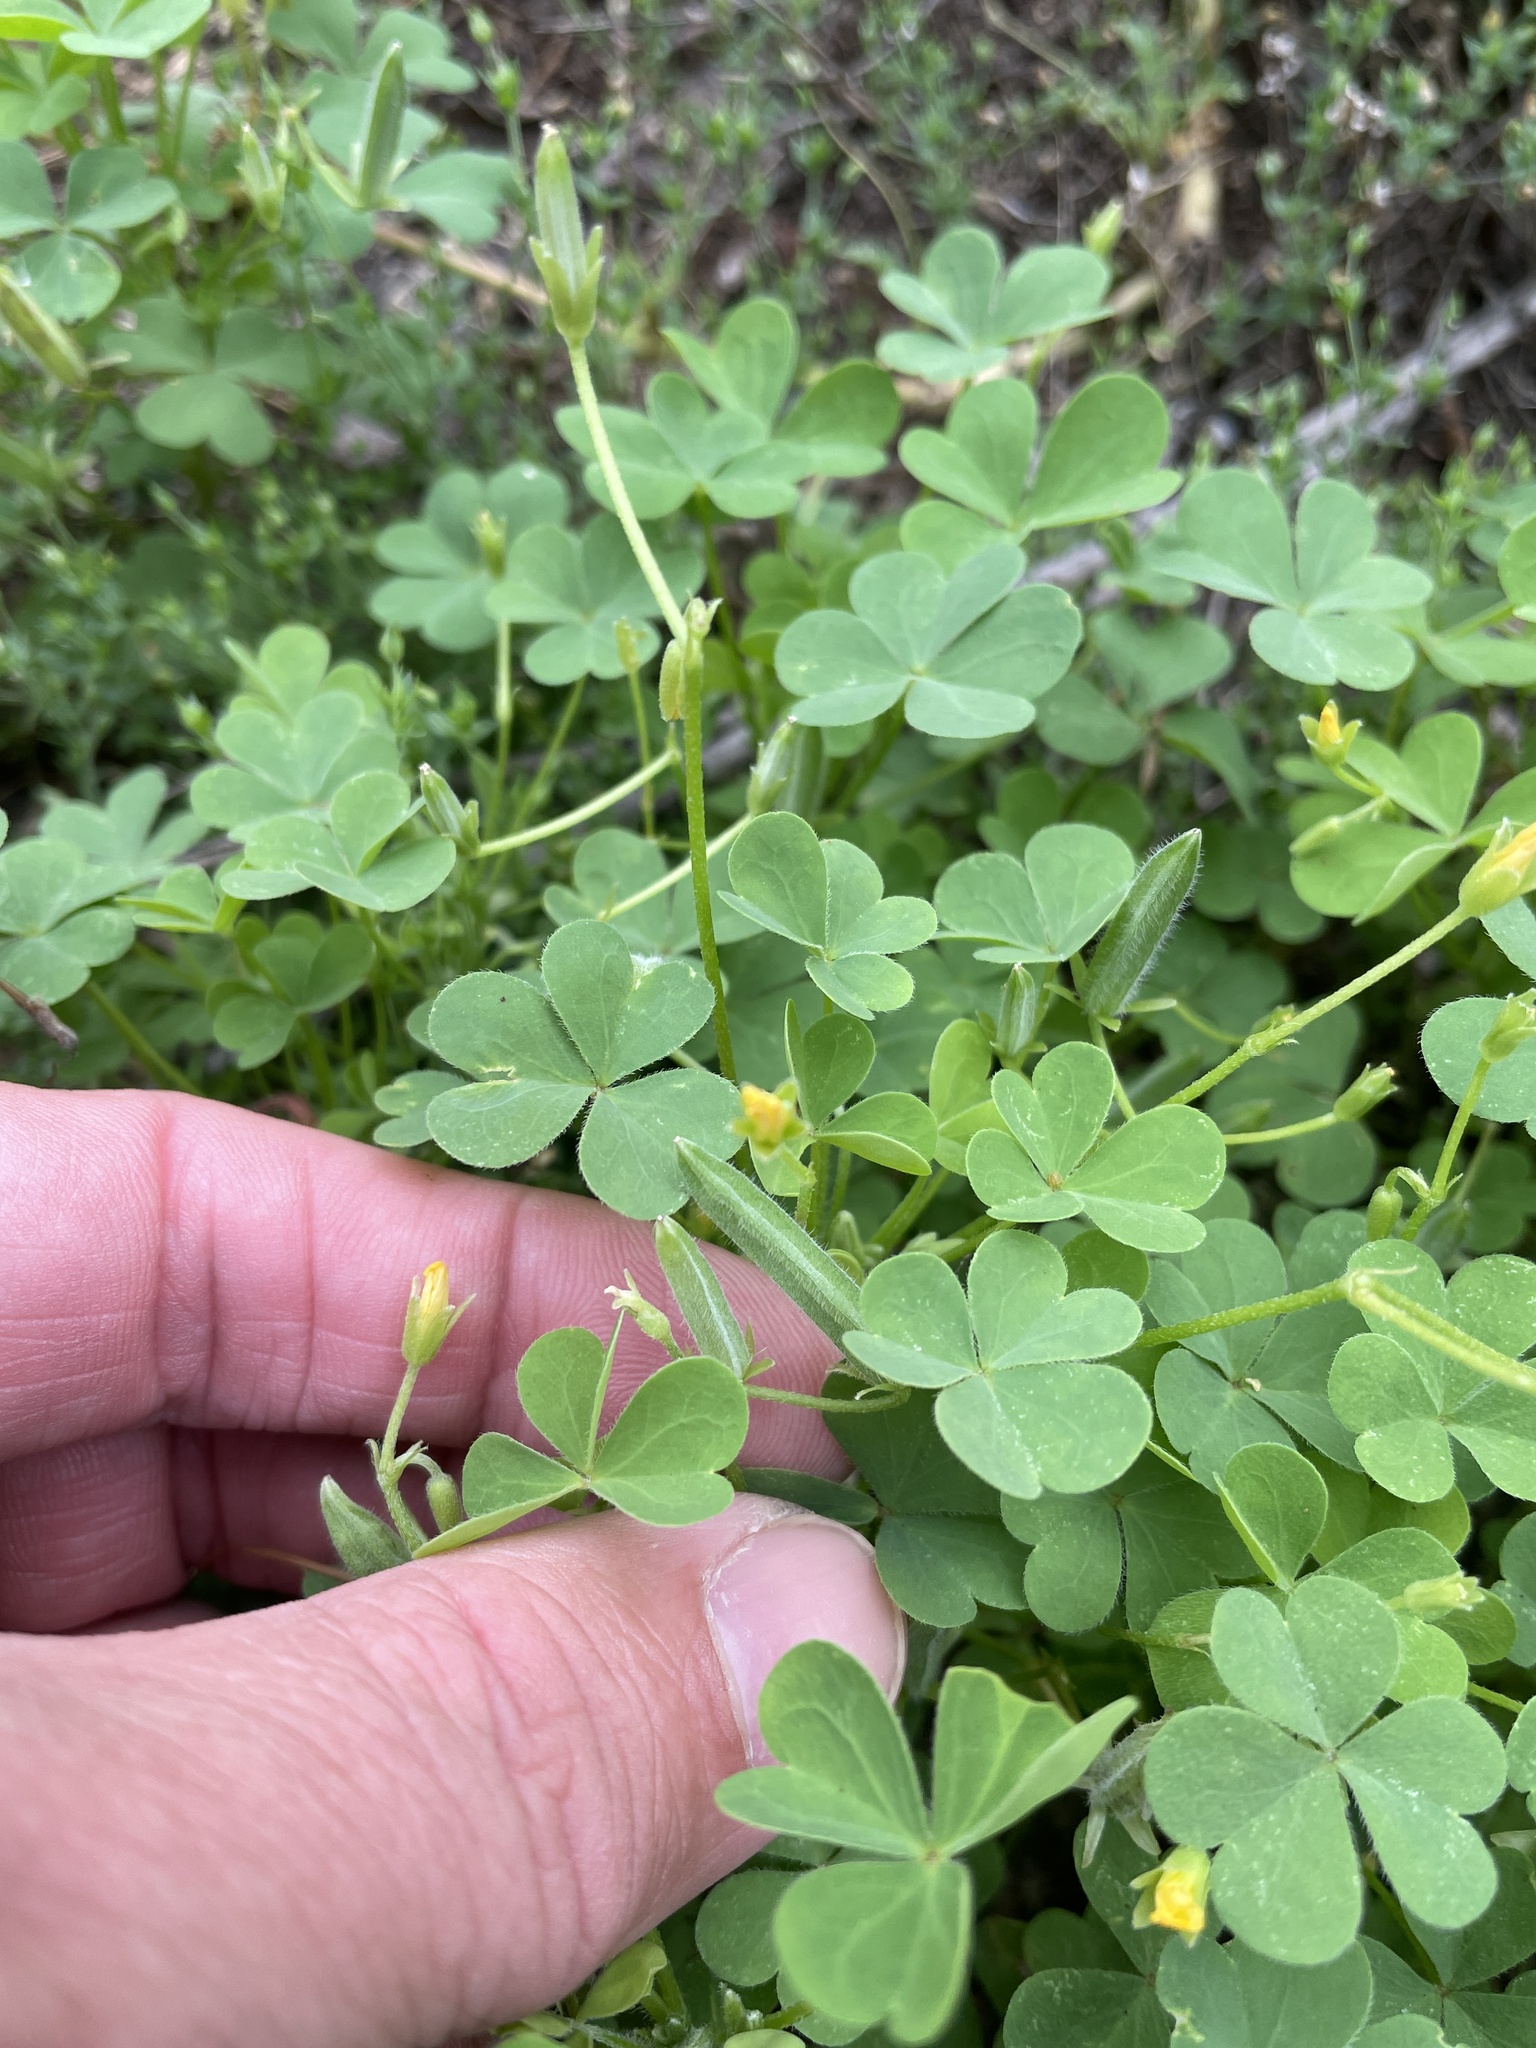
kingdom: Plantae
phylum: Tracheophyta
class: Magnoliopsida
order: Oxalidales
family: Oxalidaceae
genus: Oxalis
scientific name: Oxalis dillenii
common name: Sussex yellow-sorrel
